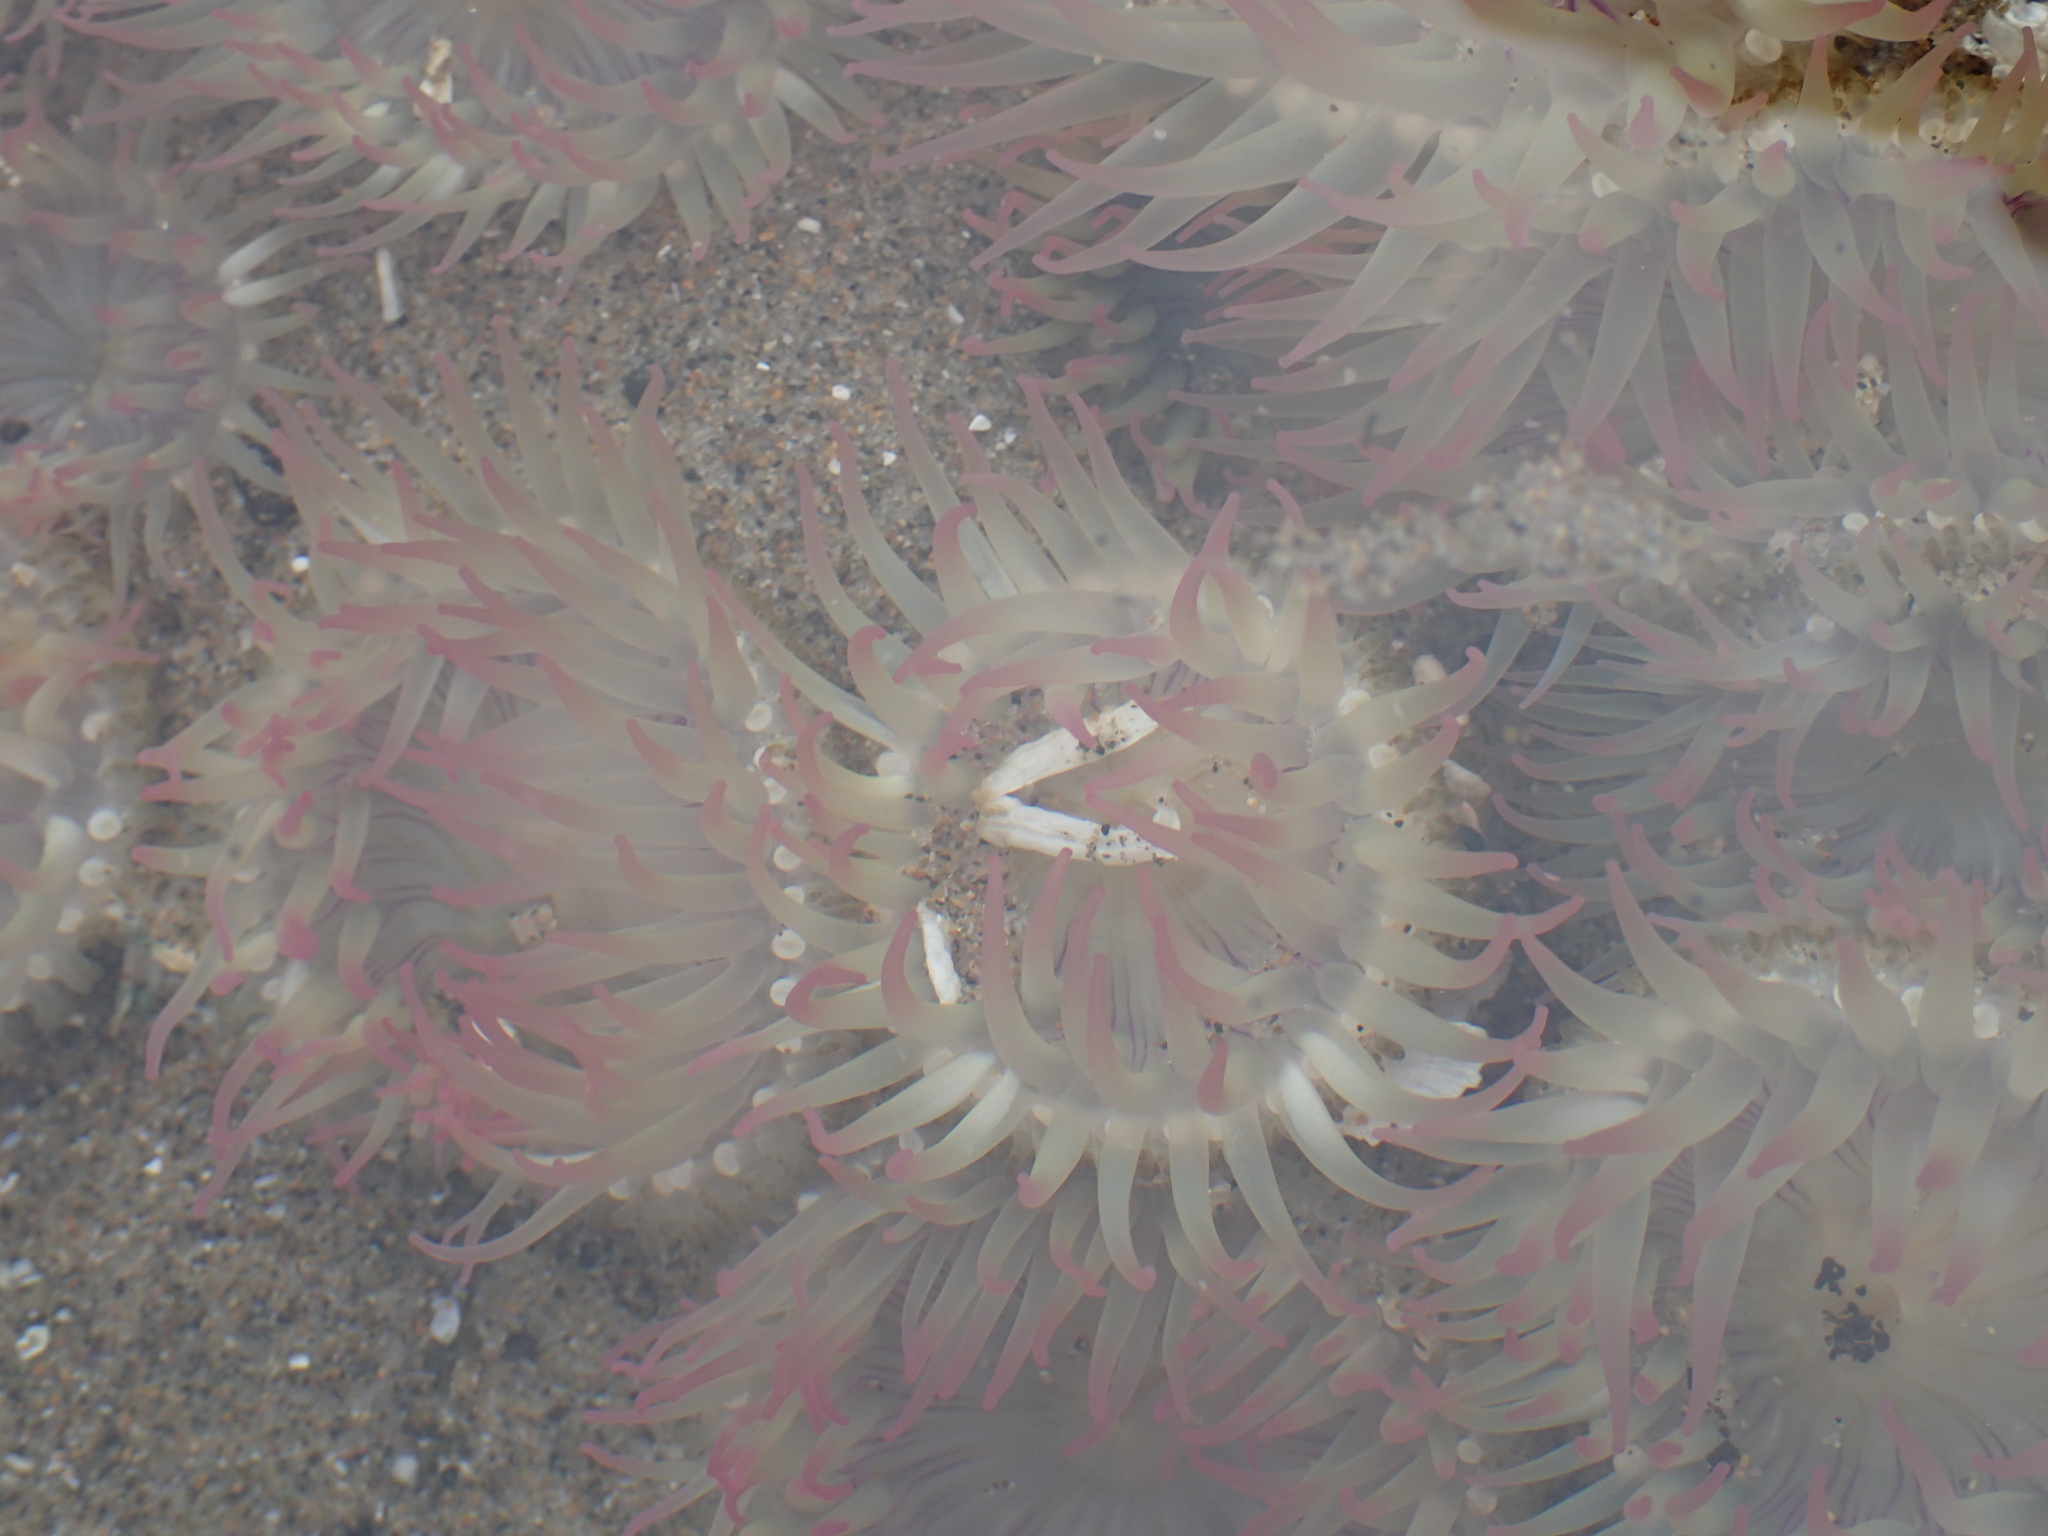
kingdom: Animalia
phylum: Cnidaria
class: Anthozoa
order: Actiniaria
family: Actiniidae
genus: Anthopleura
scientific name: Anthopleura elegantissima
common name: Clonal anemone
